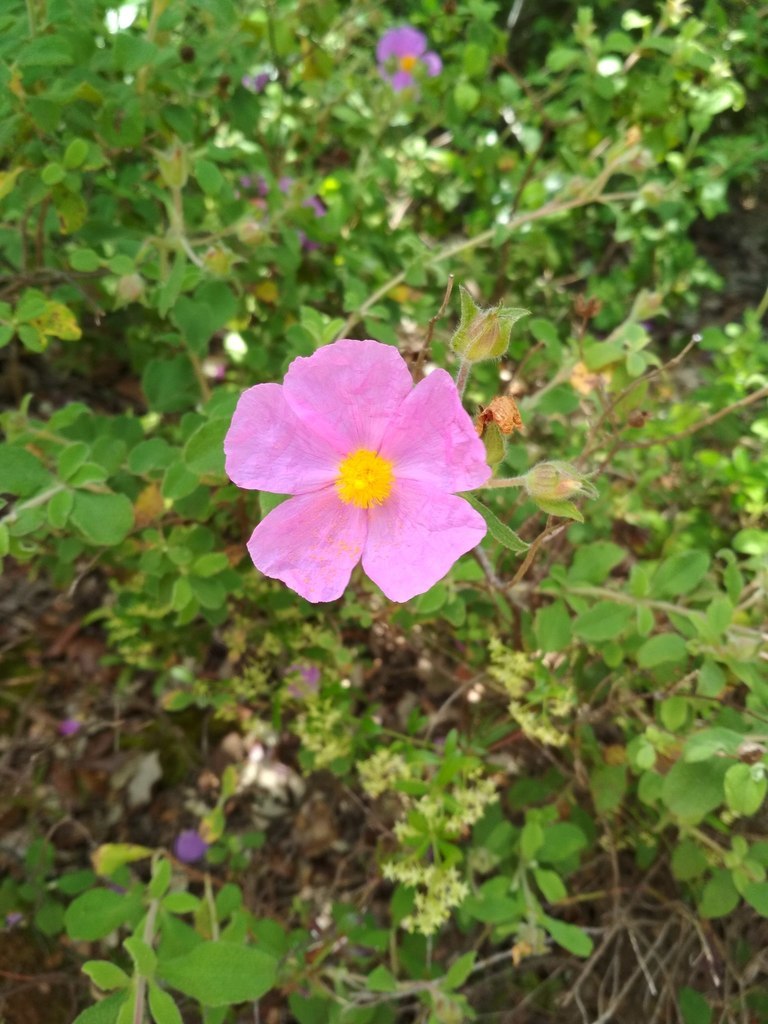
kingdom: Plantae
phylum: Tracheophyta
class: Magnoliopsida
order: Malvales
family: Cistaceae
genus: Cistus
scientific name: Cistus creticus
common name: Cretan rockrose
